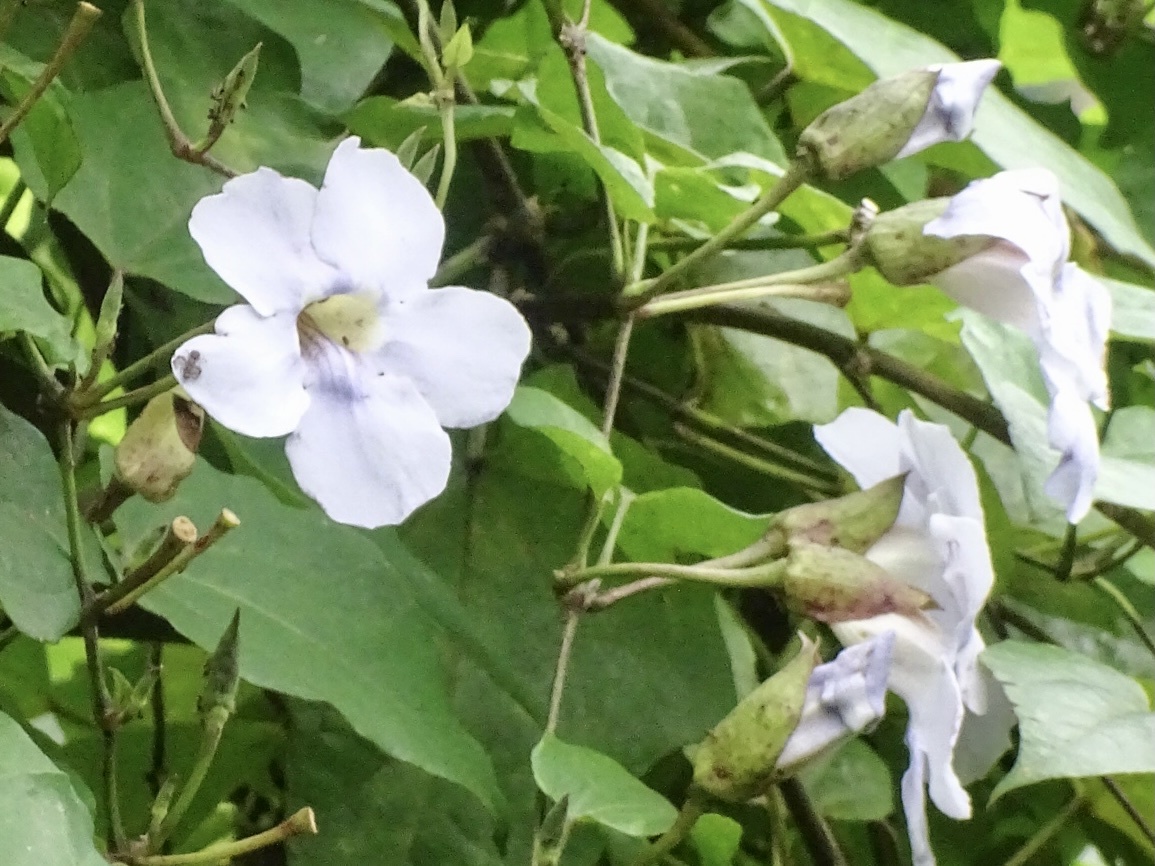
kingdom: Plantae
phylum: Tracheophyta
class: Magnoliopsida
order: Lamiales
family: Acanthaceae
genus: Thunbergia
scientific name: Thunbergia grandiflora
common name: Bengal trumpet
